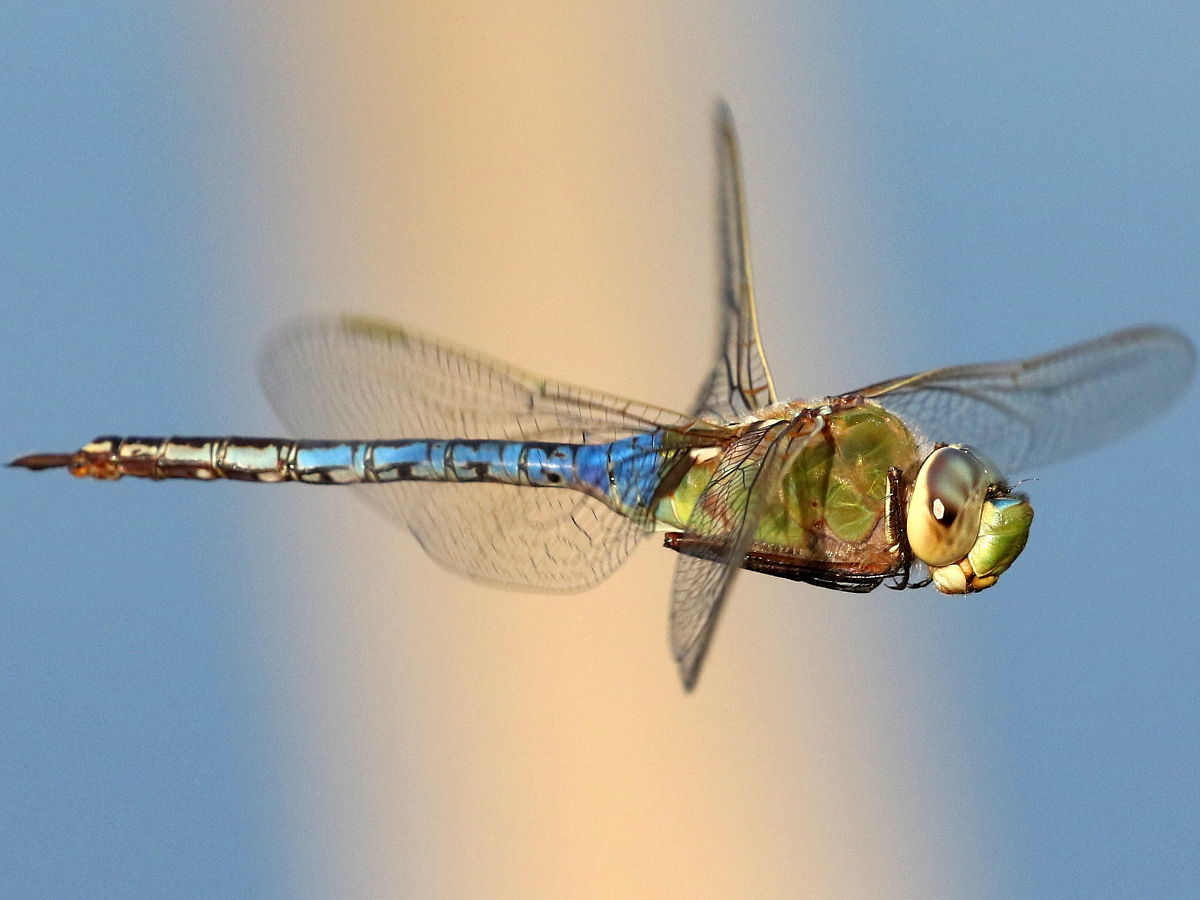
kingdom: Animalia
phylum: Arthropoda
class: Insecta
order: Odonata
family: Aeshnidae
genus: Anax
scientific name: Anax junius
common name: Common green darner
